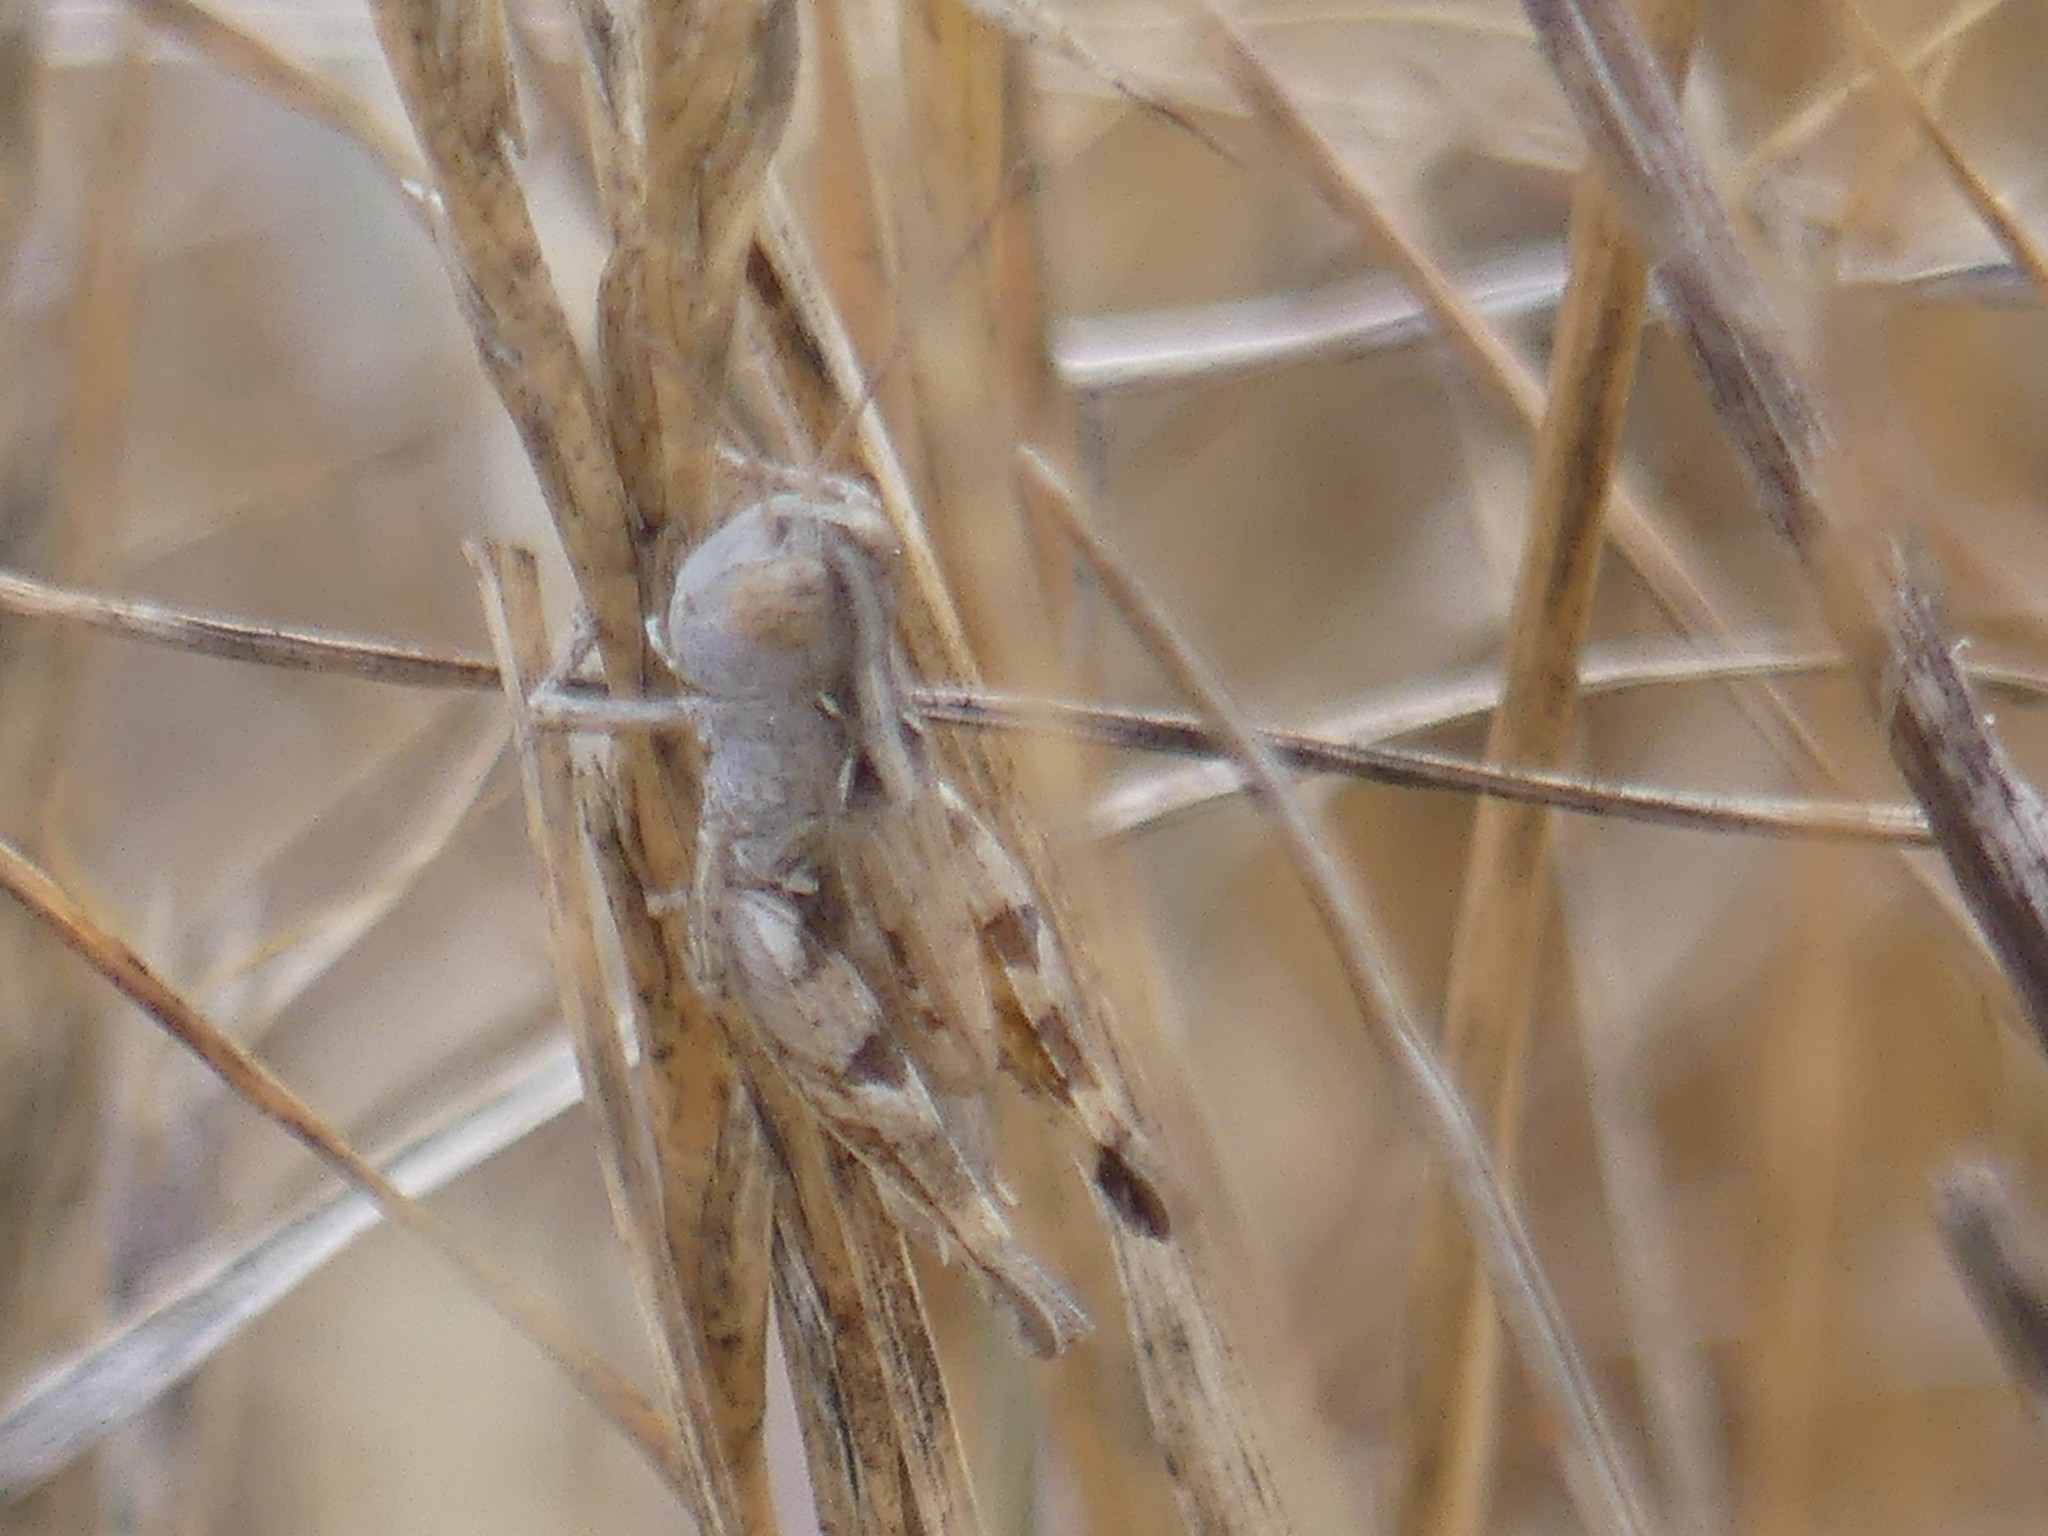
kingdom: Animalia
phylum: Arthropoda
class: Insecta
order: Orthoptera
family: Acrididae
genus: Notostaurus
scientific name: Notostaurus
